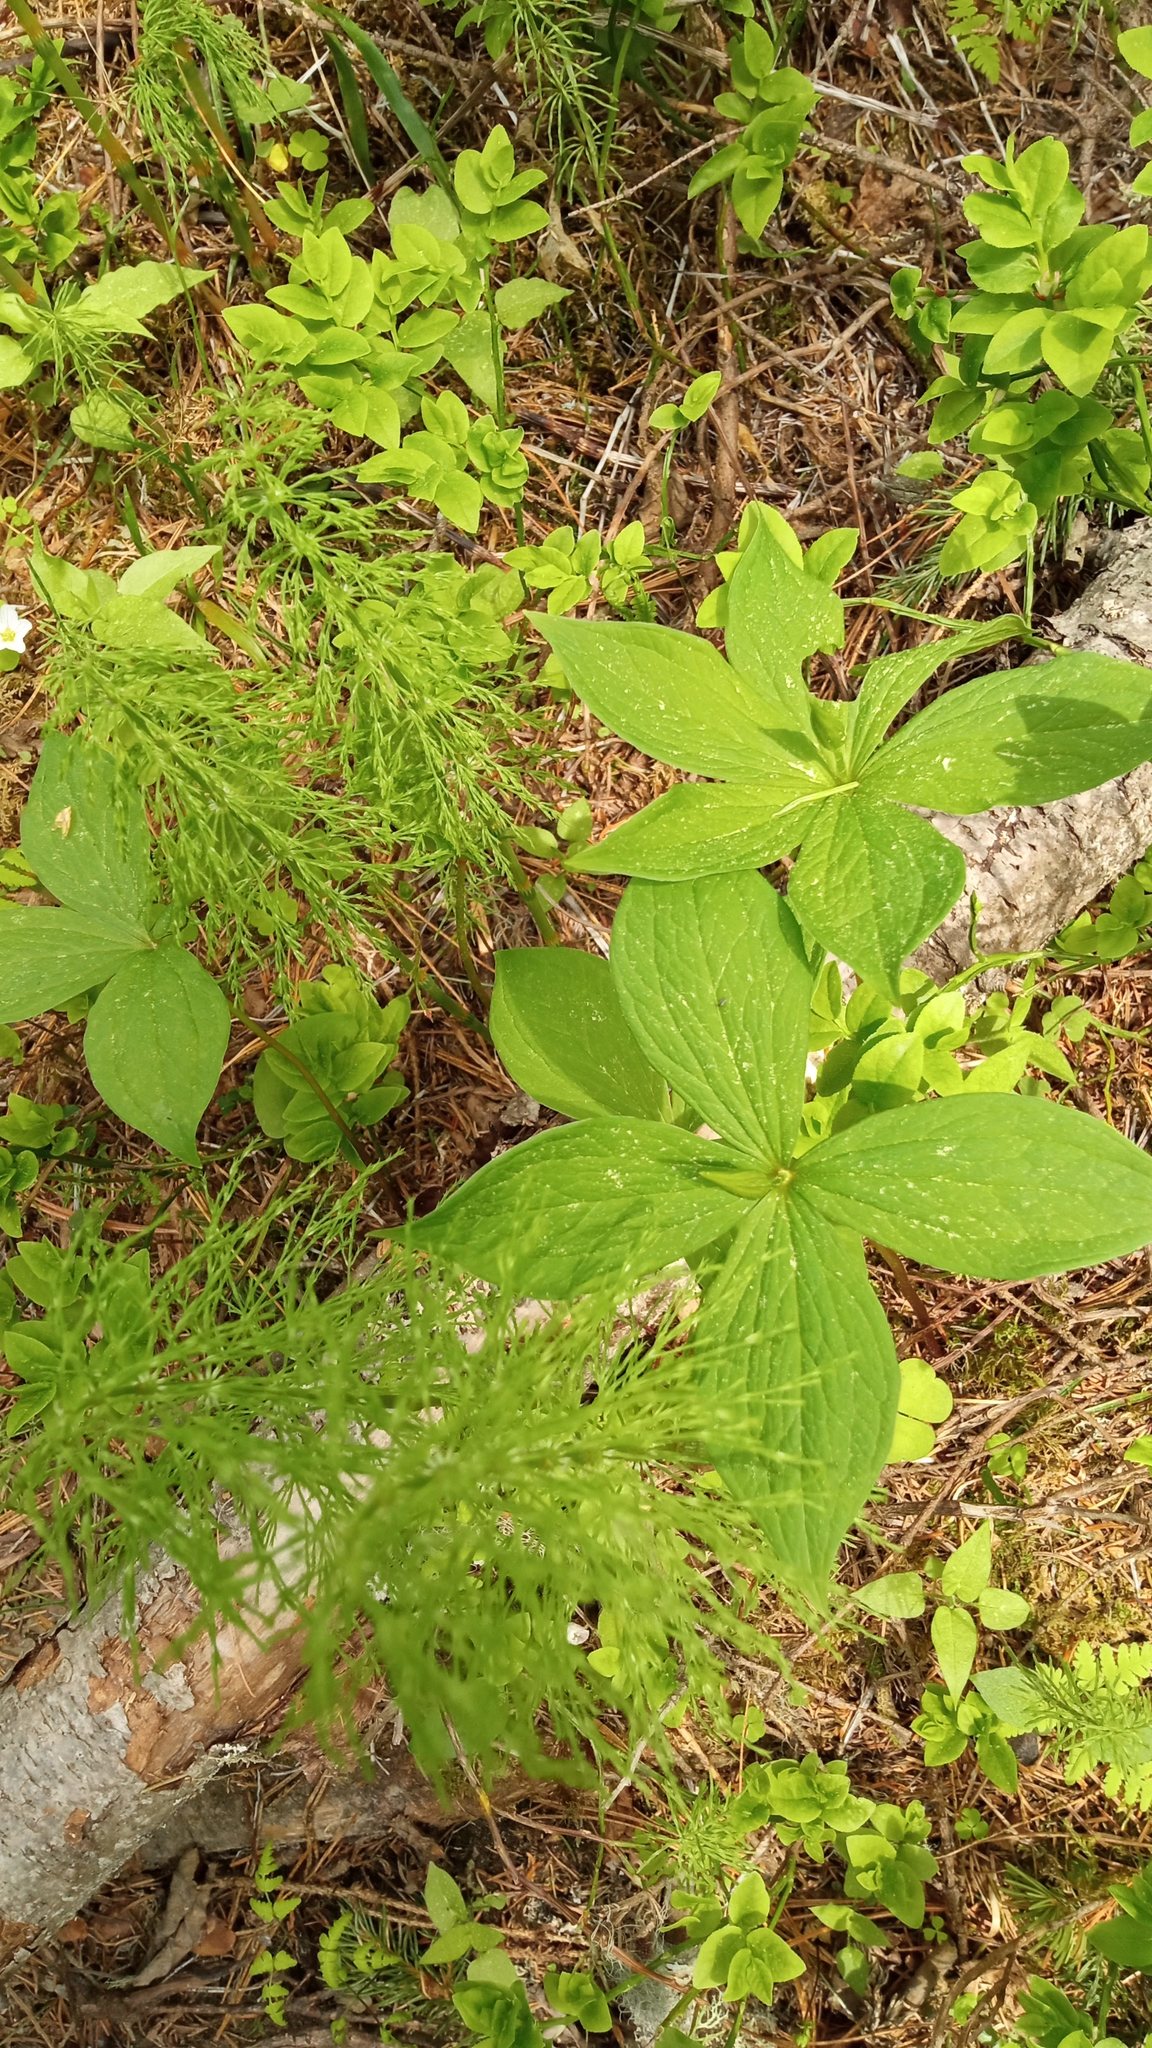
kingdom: Plantae
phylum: Tracheophyta
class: Liliopsida
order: Liliales
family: Melanthiaceae
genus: Paris
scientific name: Paris quadrifolia
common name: Herb-paris
